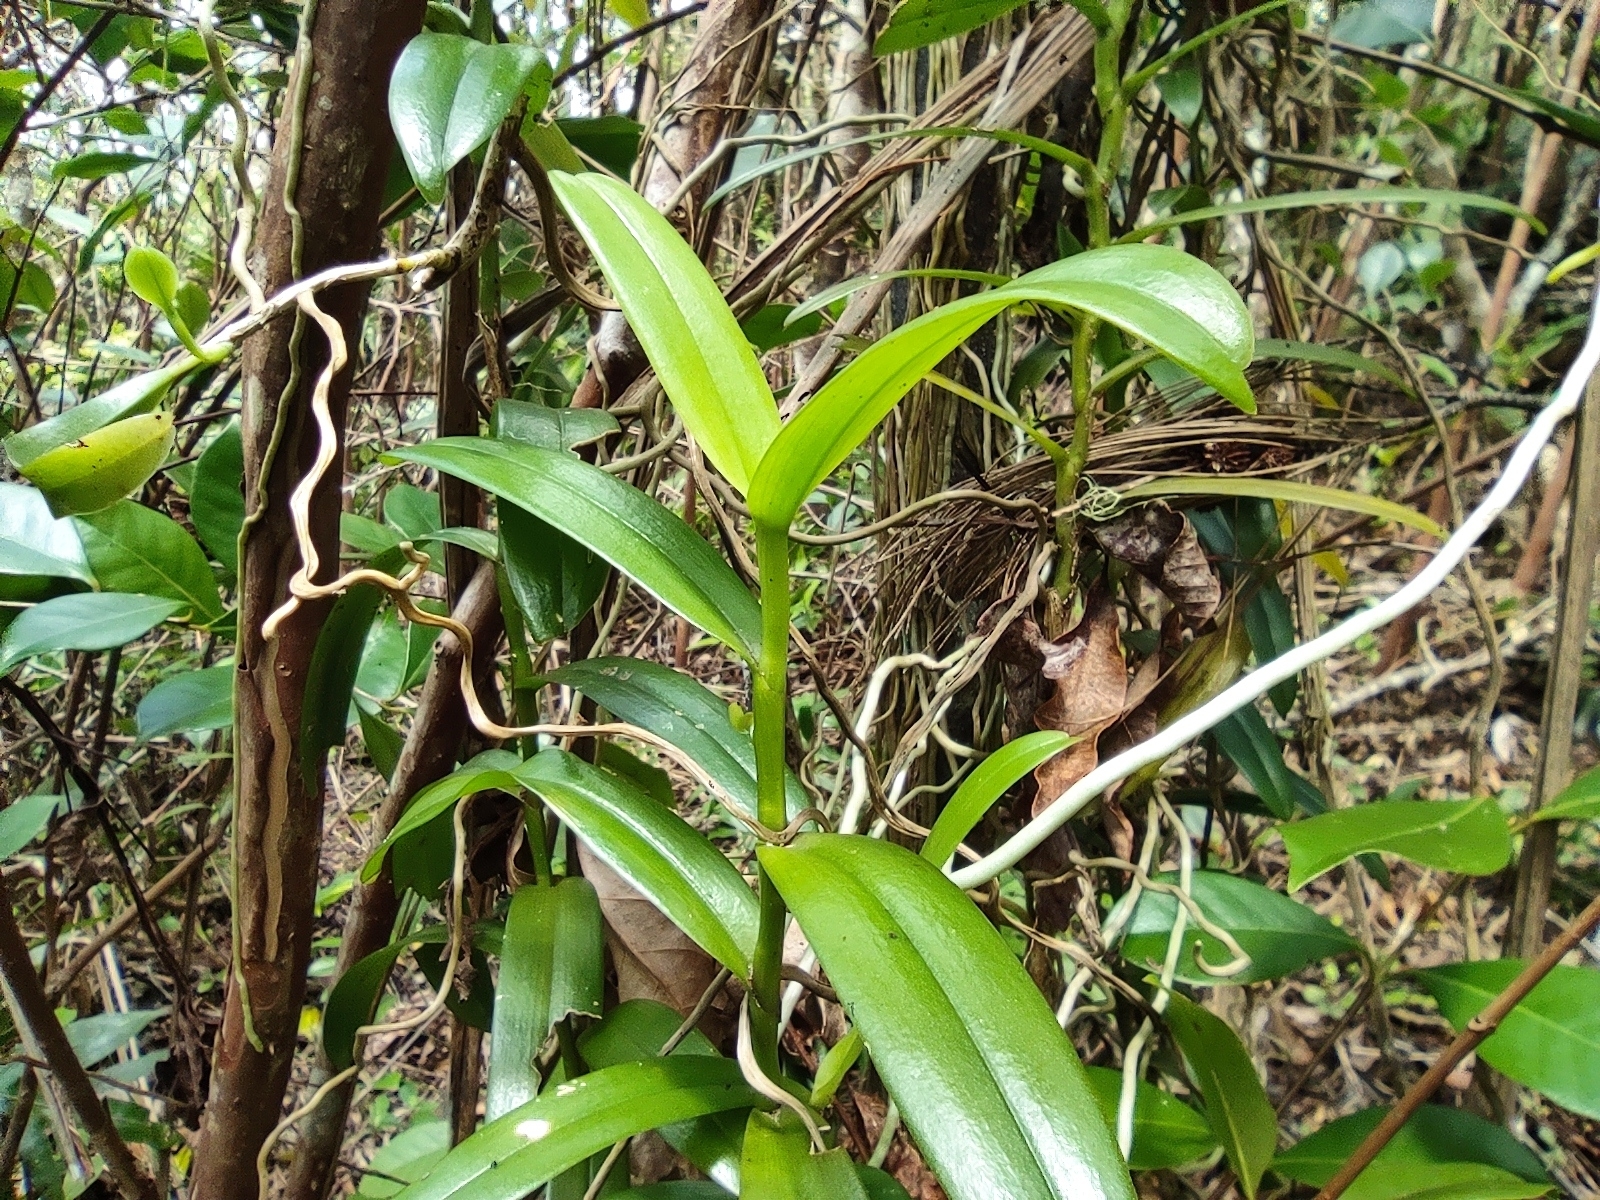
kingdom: Plantae
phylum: Tracheophyta
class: Liliopsida
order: Asparagales
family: Orchidaceae
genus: Cryptopus
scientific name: Cryptopus elatus
